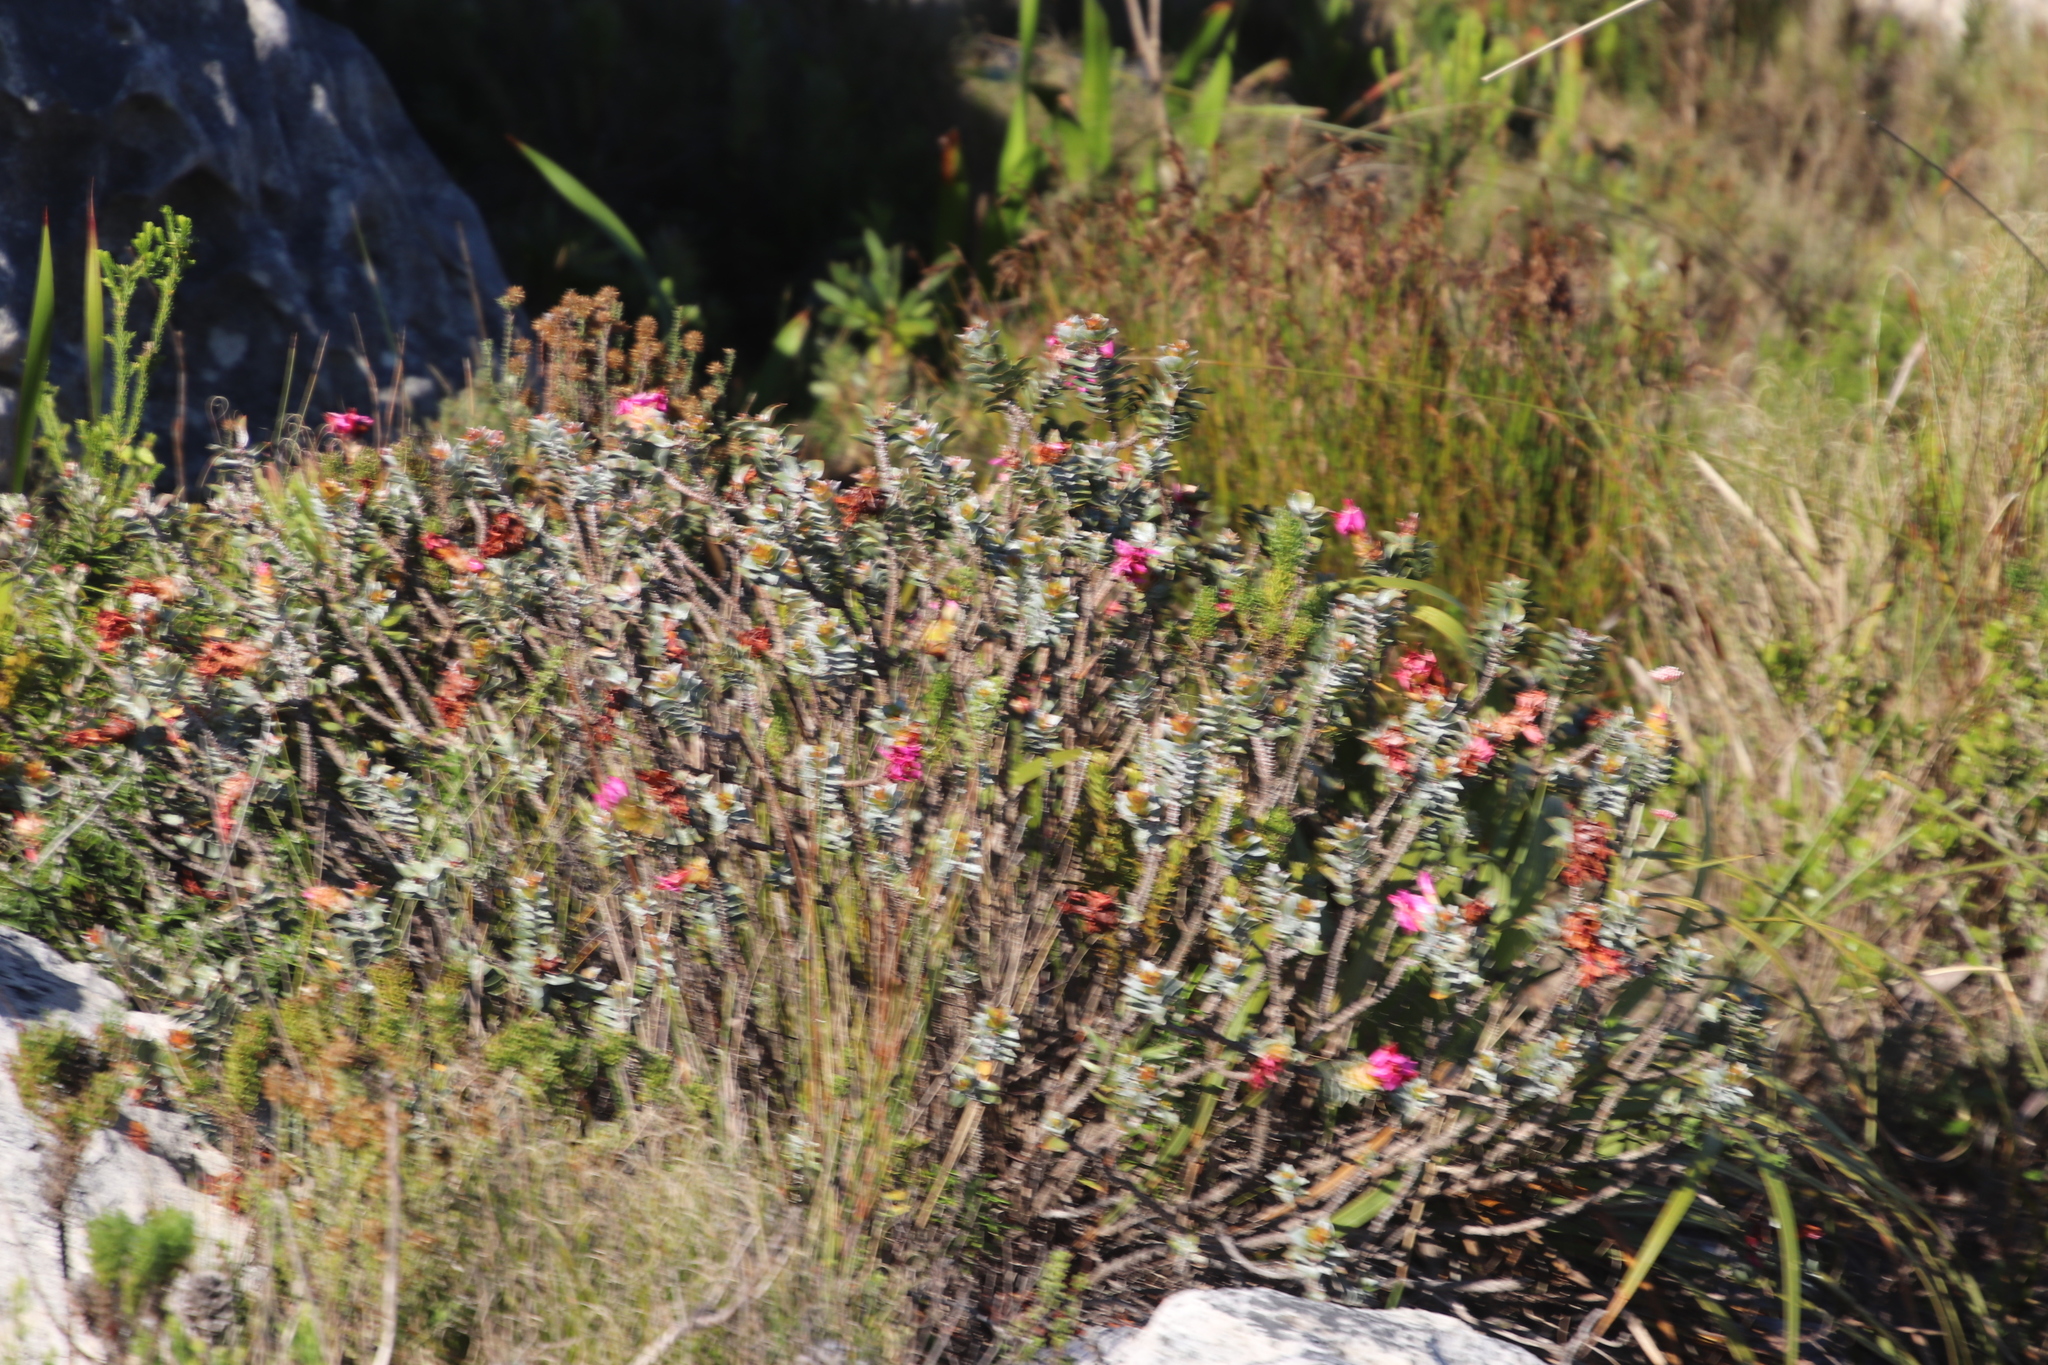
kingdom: Plantae
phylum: Tracheophyta
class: Magnoliopsida
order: Myrtales
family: Penaeaceae
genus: Saltera
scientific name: Saltera sarcocolla
